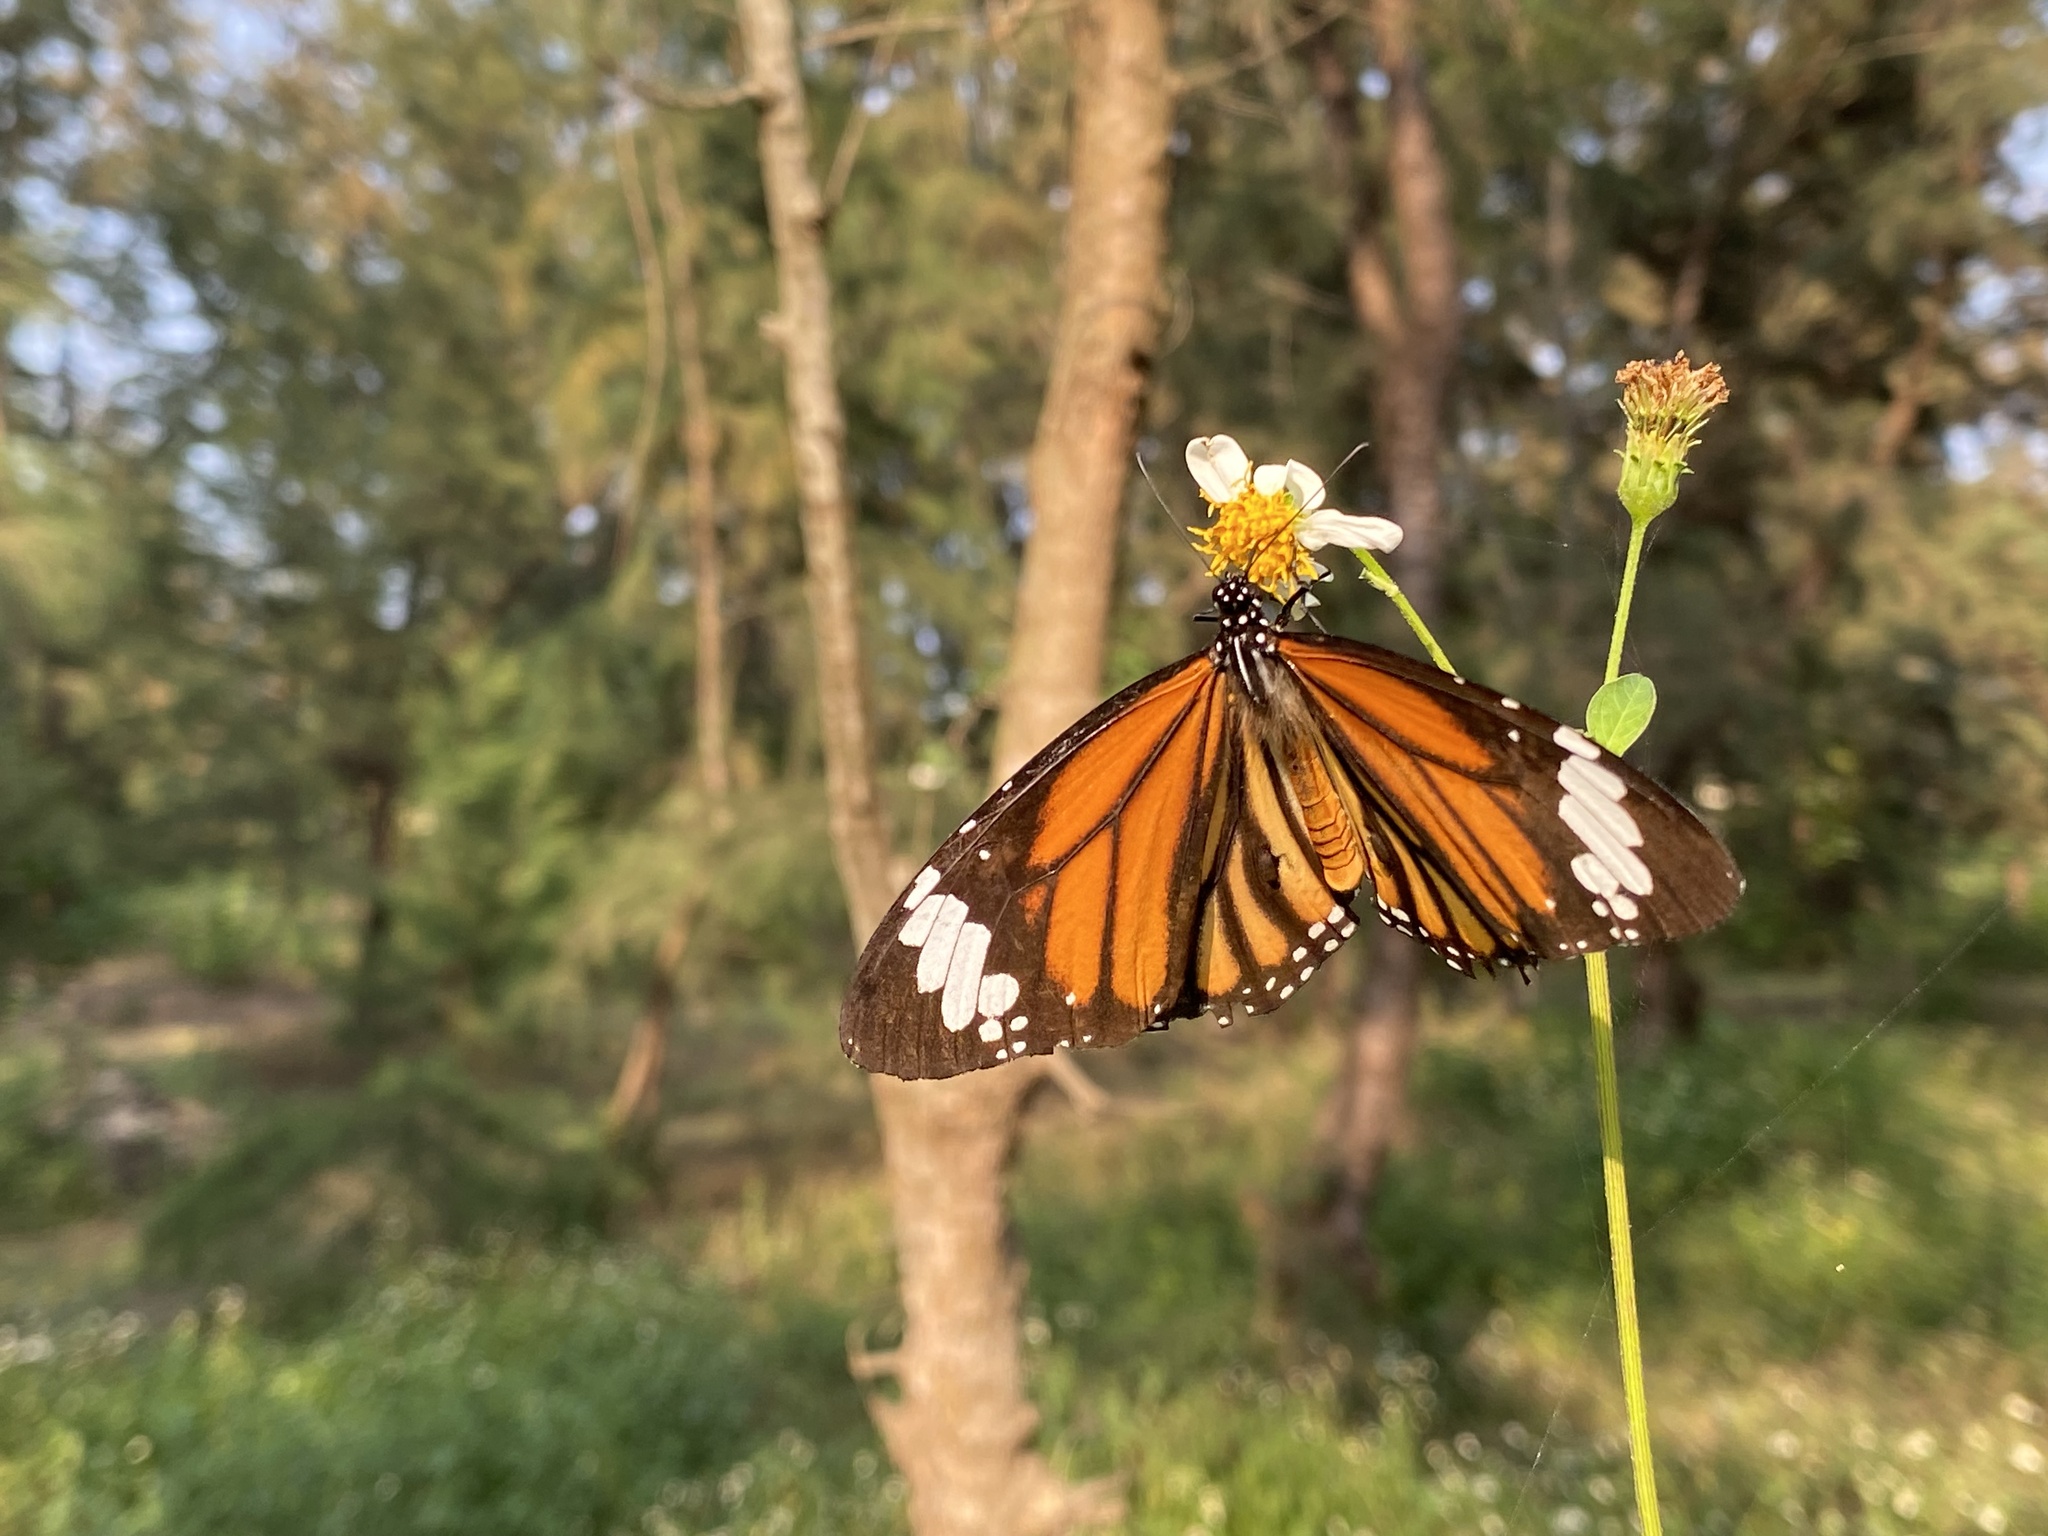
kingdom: Animalia
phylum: Arthropoda
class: Insecta
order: Lepidoptera
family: Nymphalidae
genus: Danaus
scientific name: Danaus genutia
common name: Common tiger butterfly
